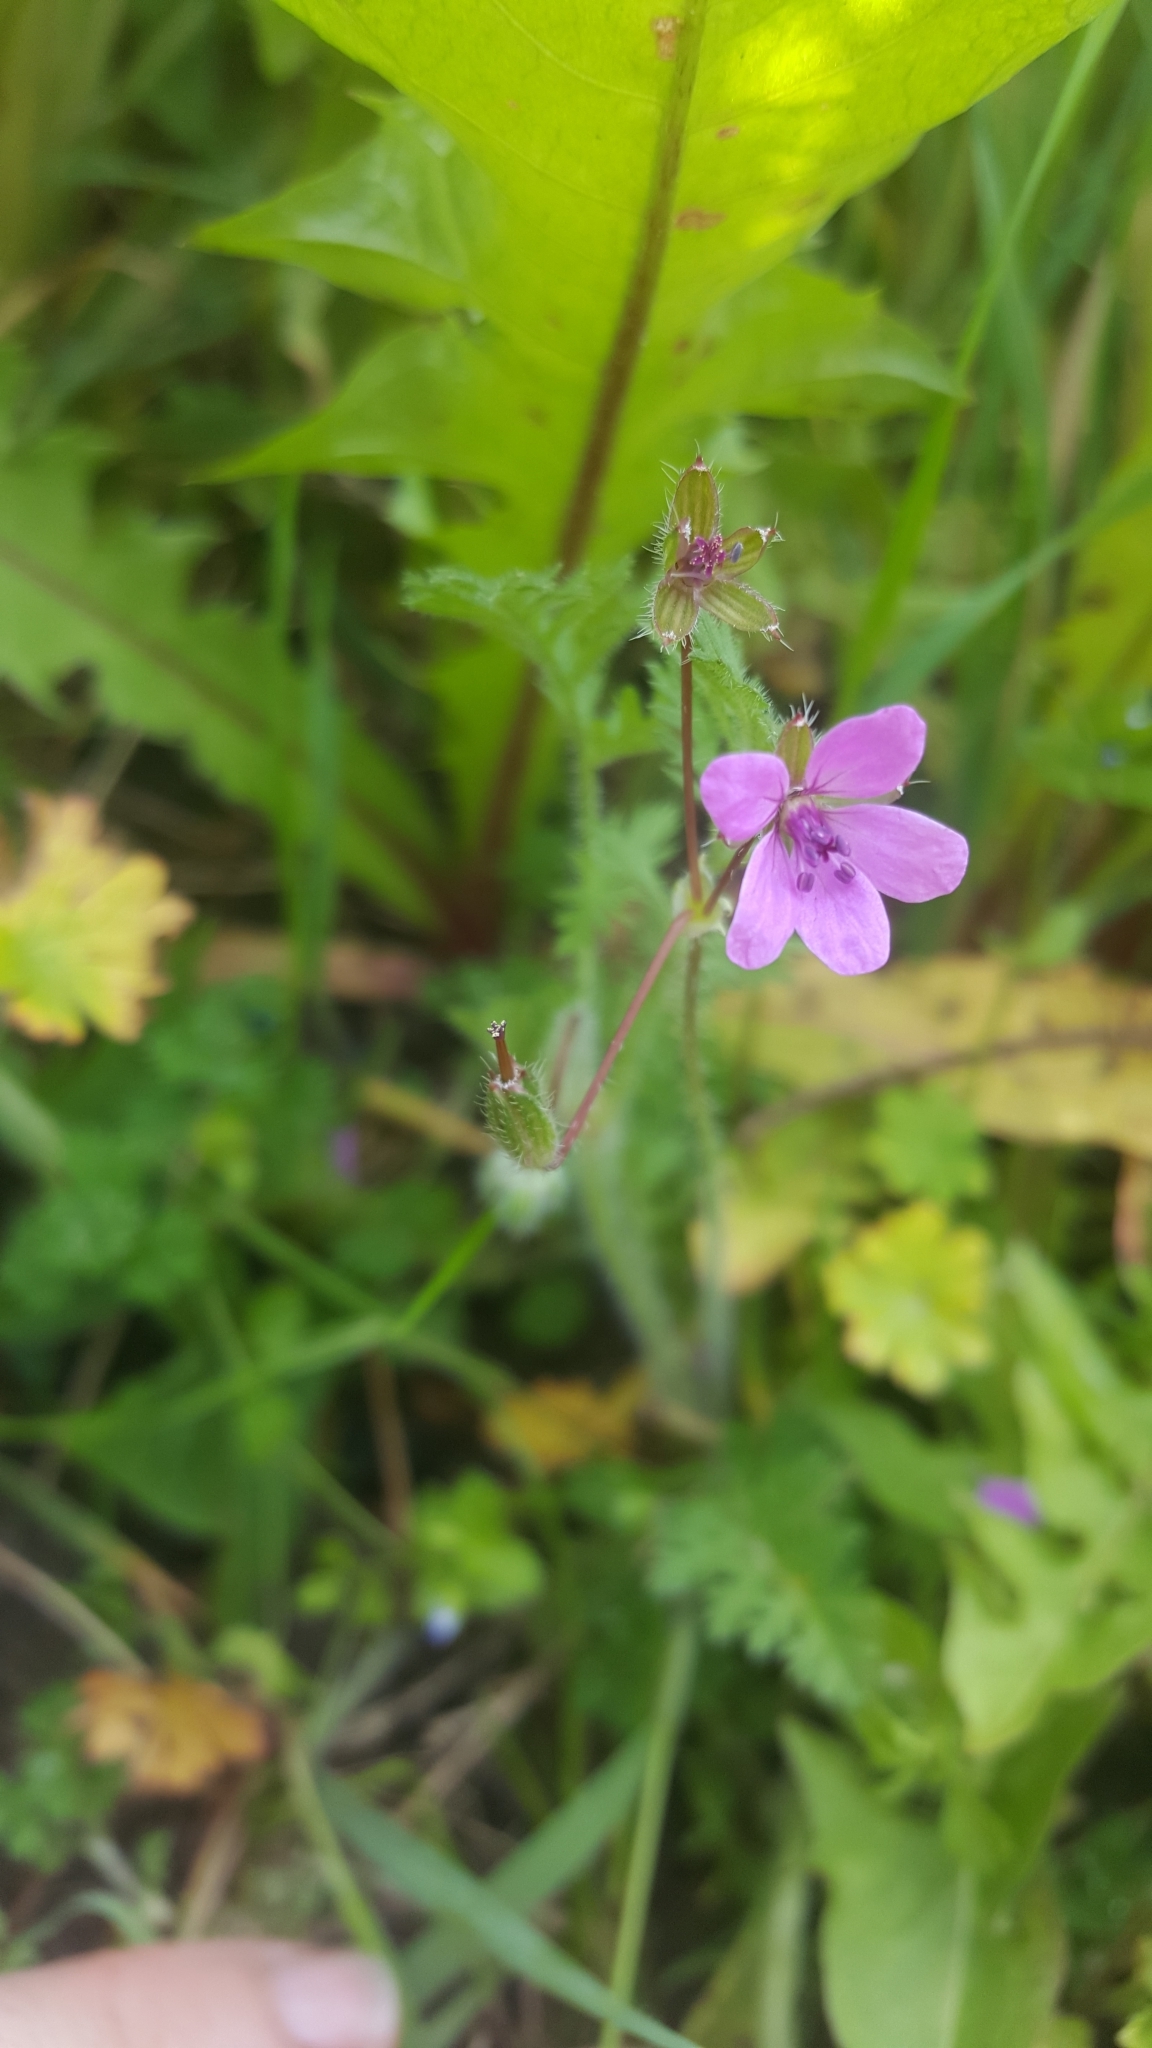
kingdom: Plantae
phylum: Tracheophyta
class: Magnoliopsida
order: Geraniales
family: Geraniaceae
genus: Erodium
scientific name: Erodium cicutarium
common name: Common stork's-bill
